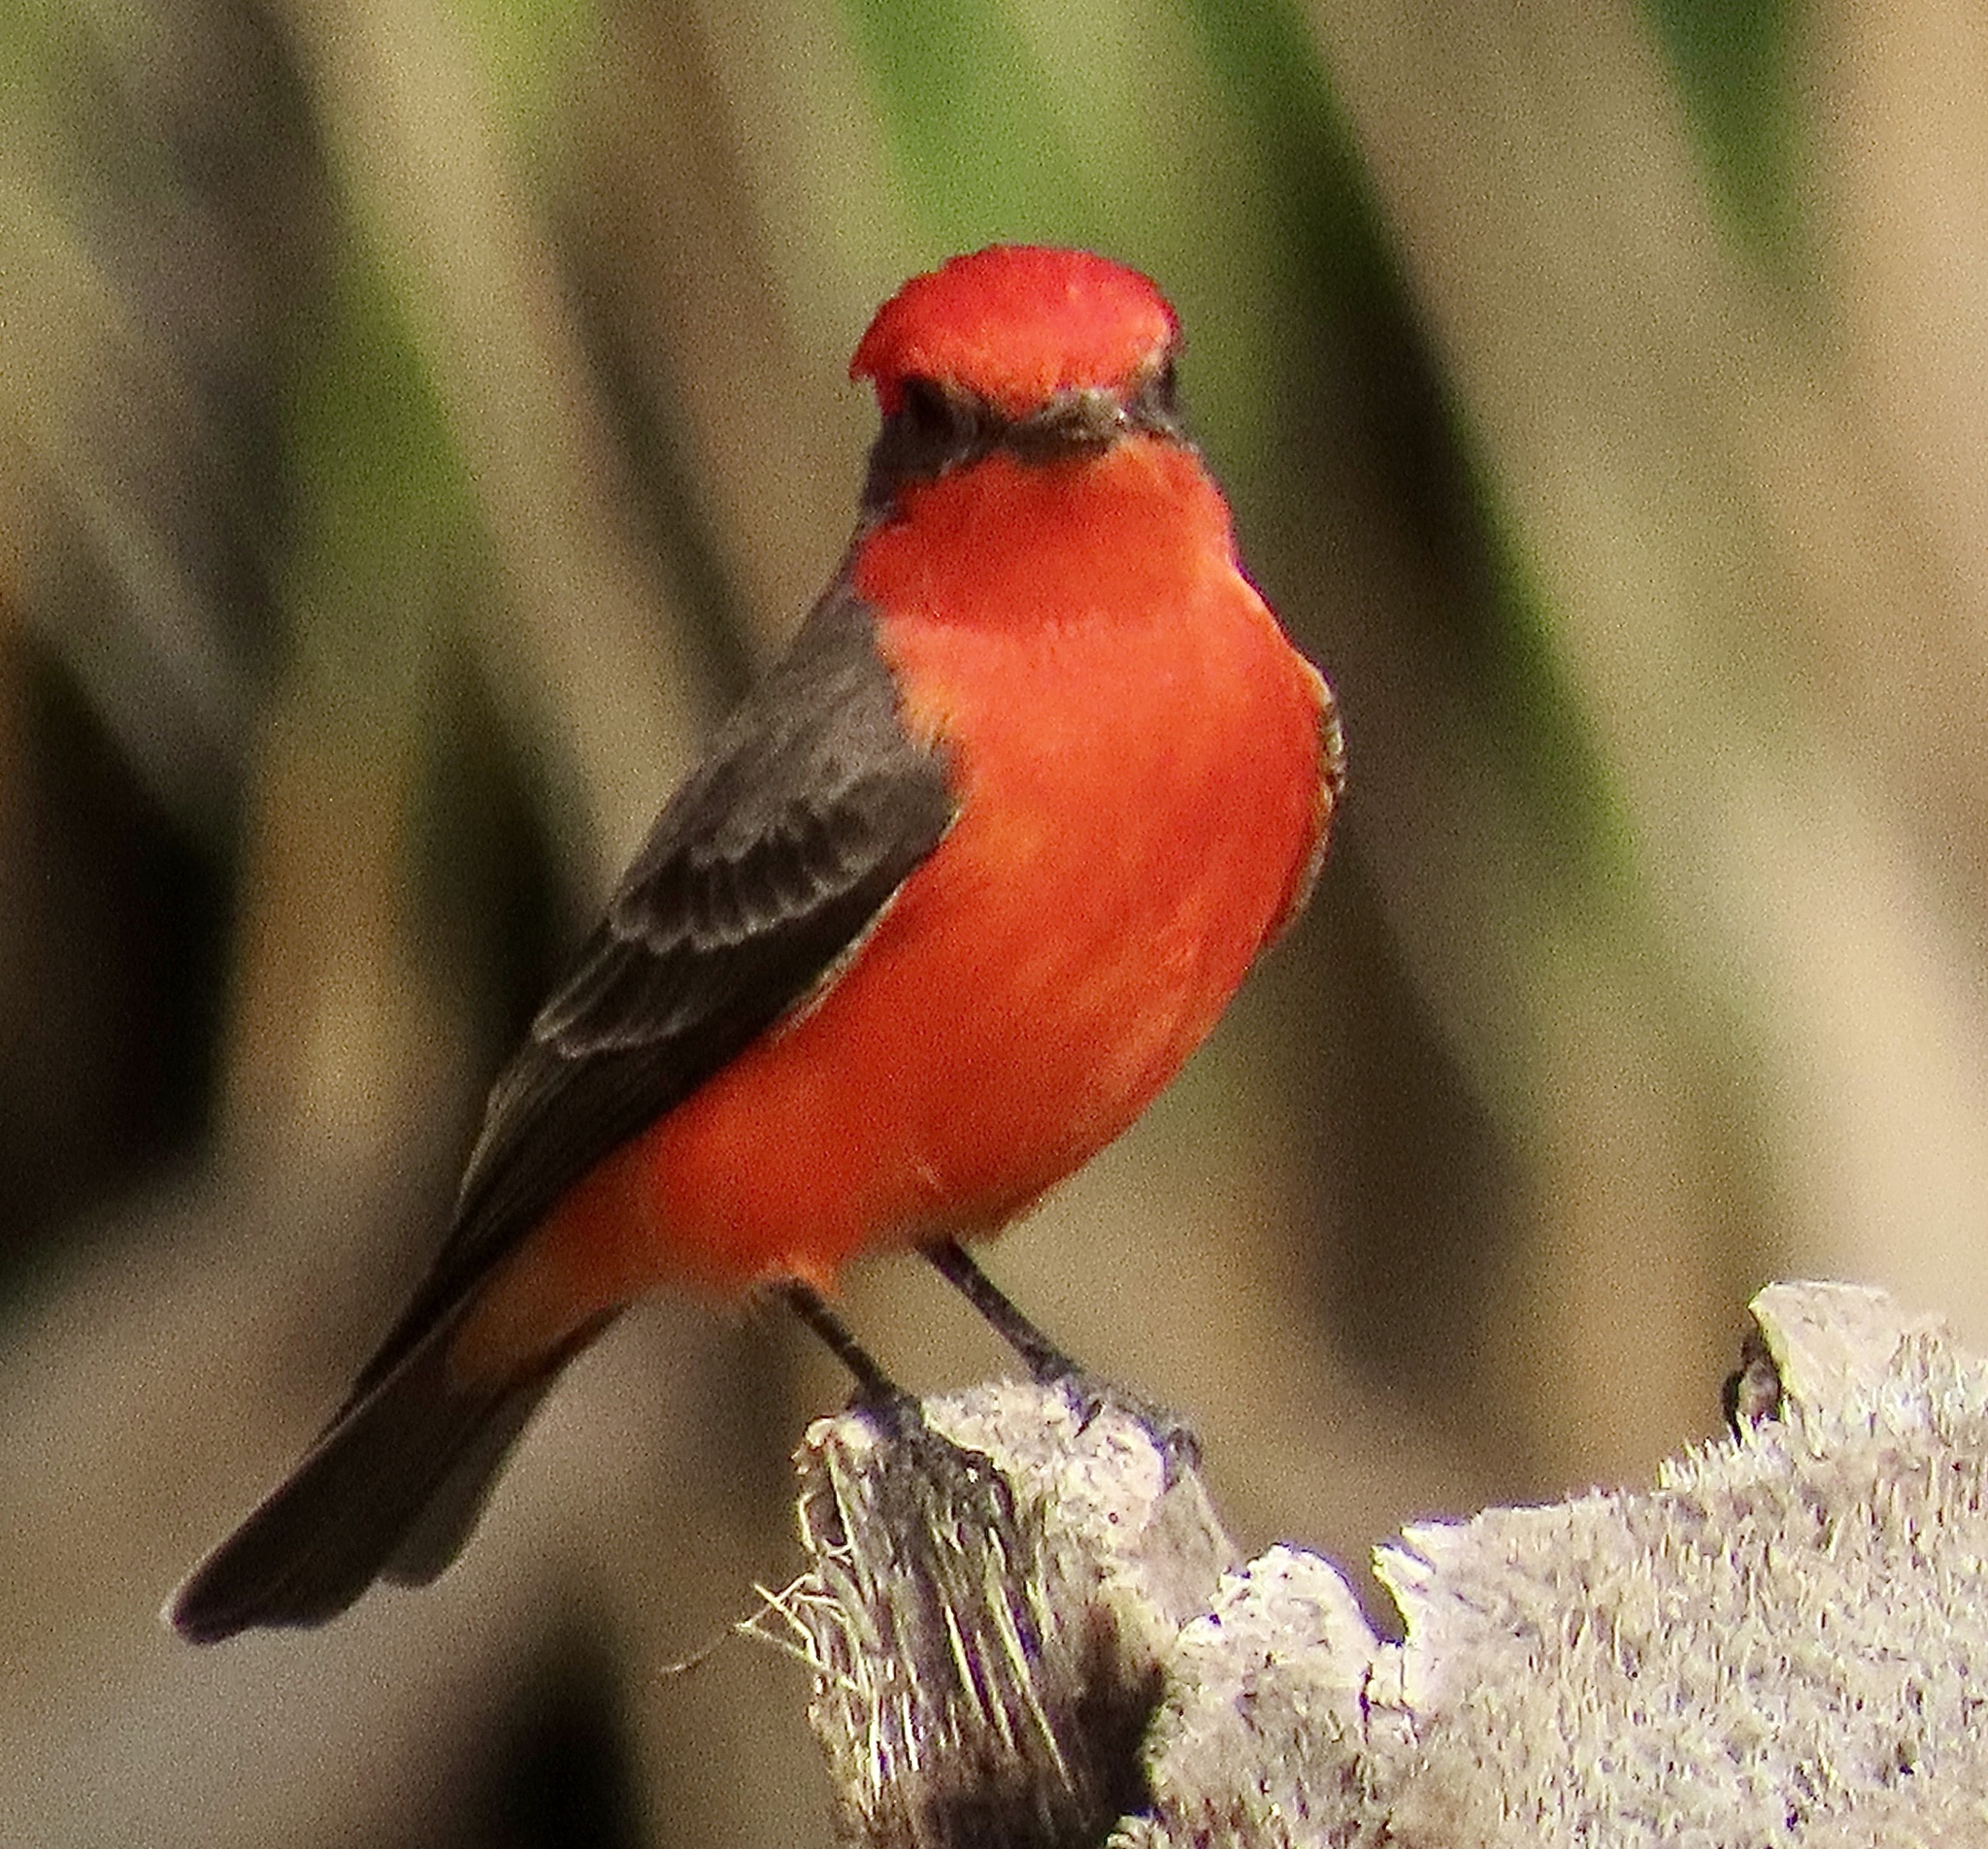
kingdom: Animalia
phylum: Chordata
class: Aves
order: Passeriformes
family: Tyrannidae
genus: Pyrocephalus
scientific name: Pyrocephalus rubinus
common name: Vermilion flycatcher
